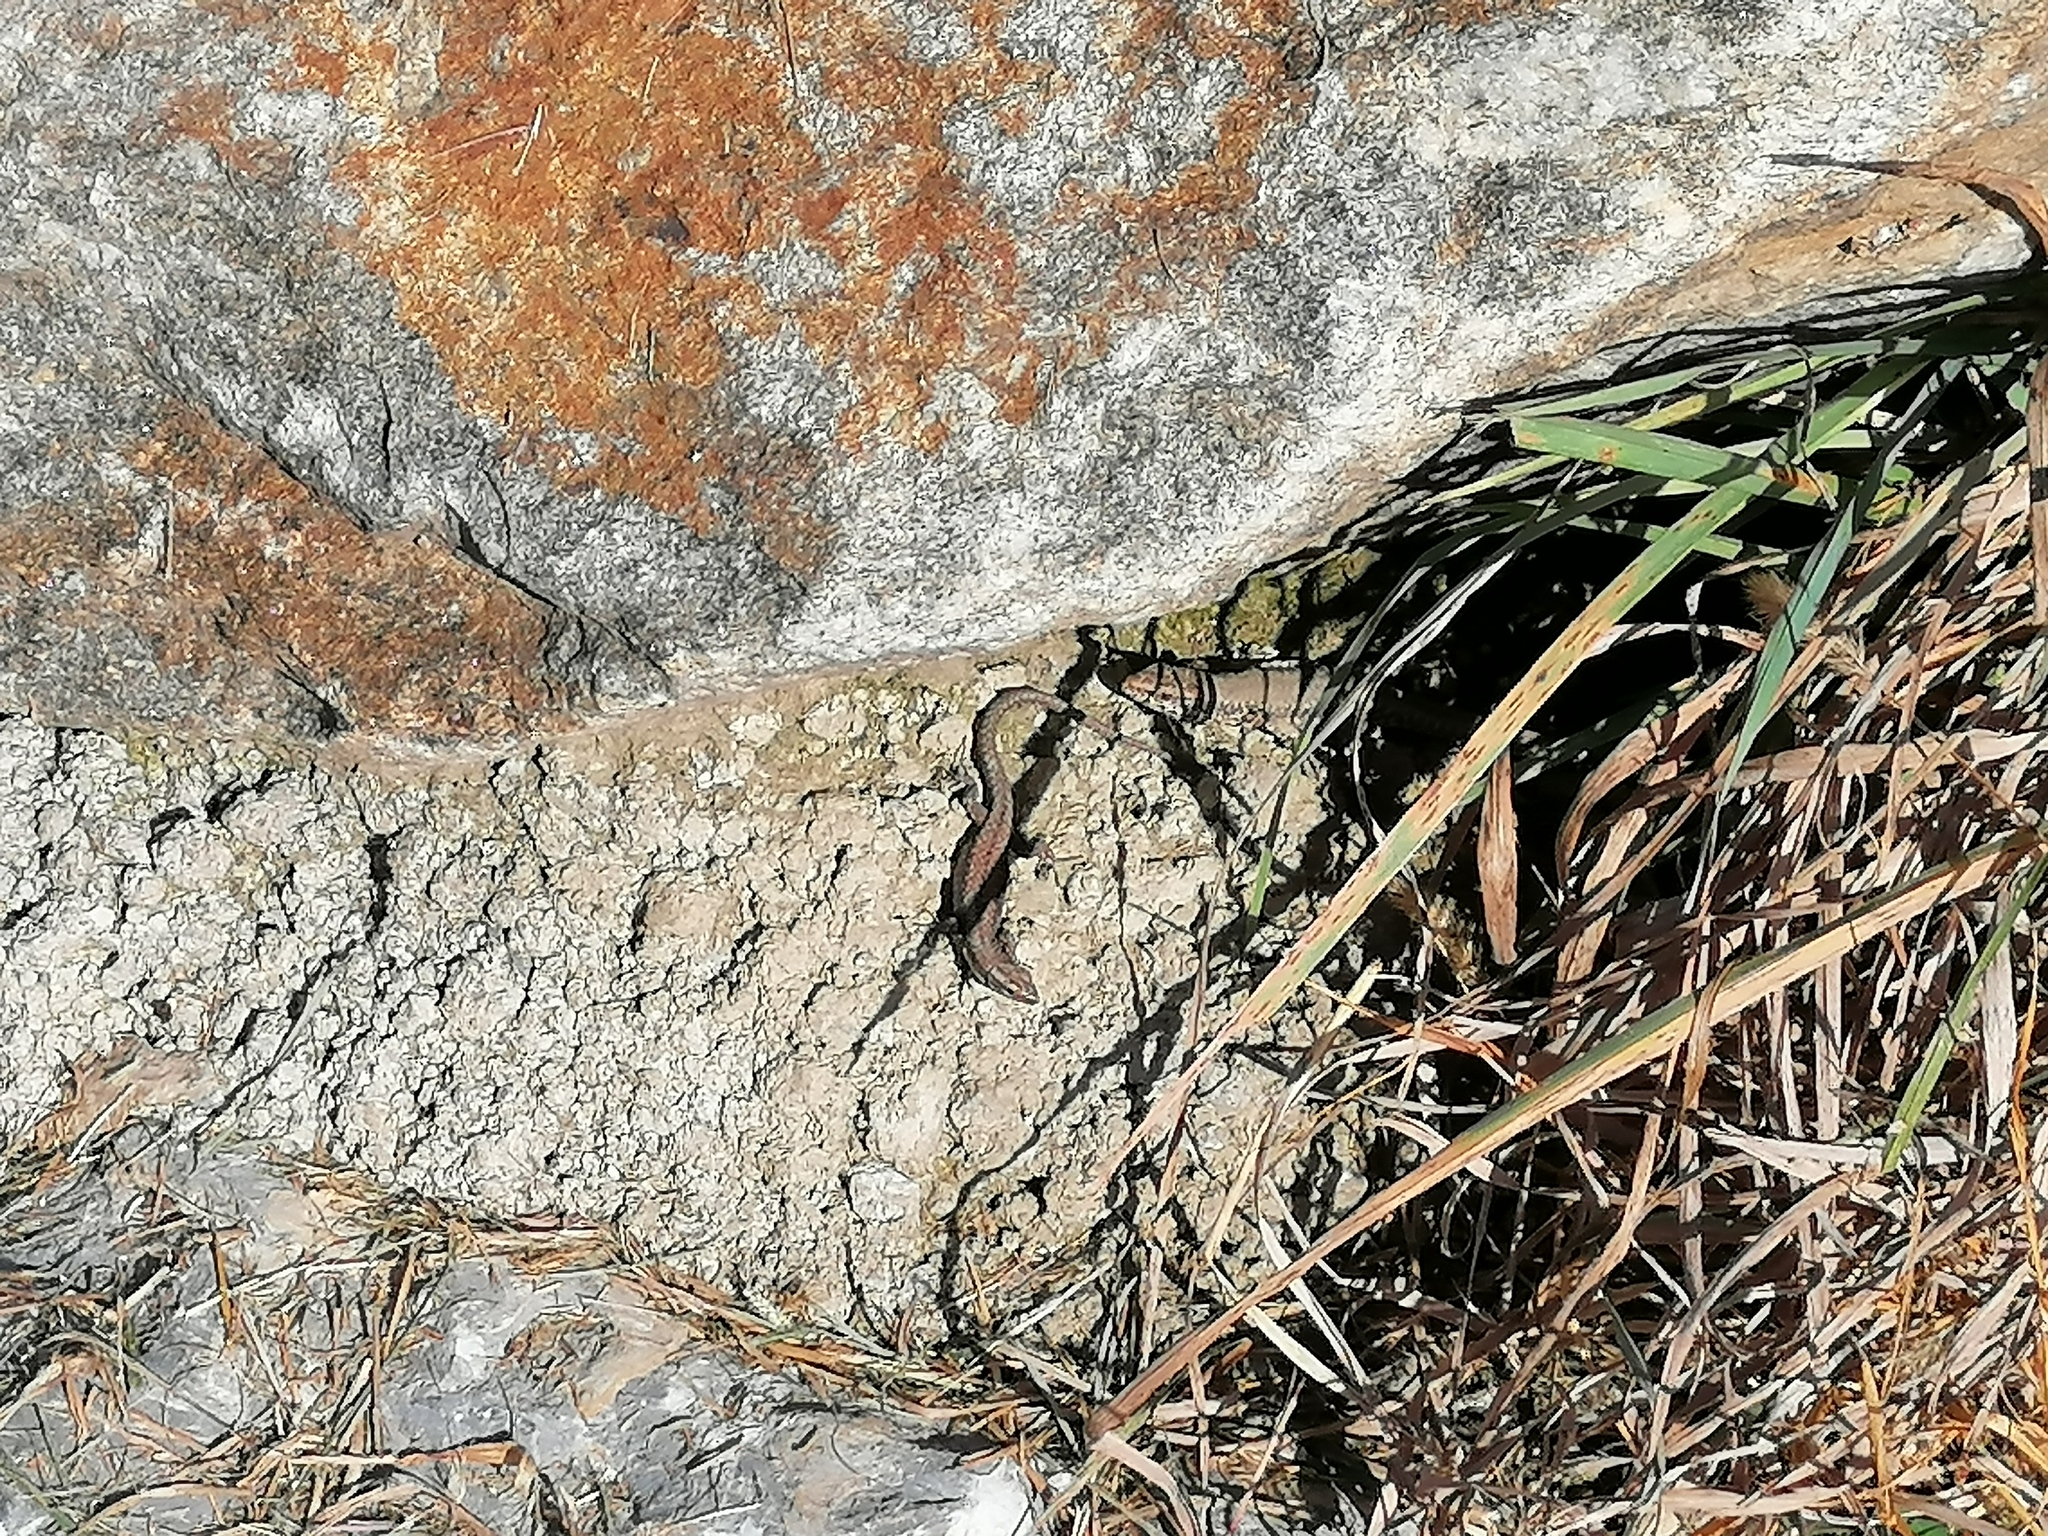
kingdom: Animalia
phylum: Chordata
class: Squamata
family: Lacertidae
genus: Podarcis
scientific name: Podarcis muralis
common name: Common wall lizard
